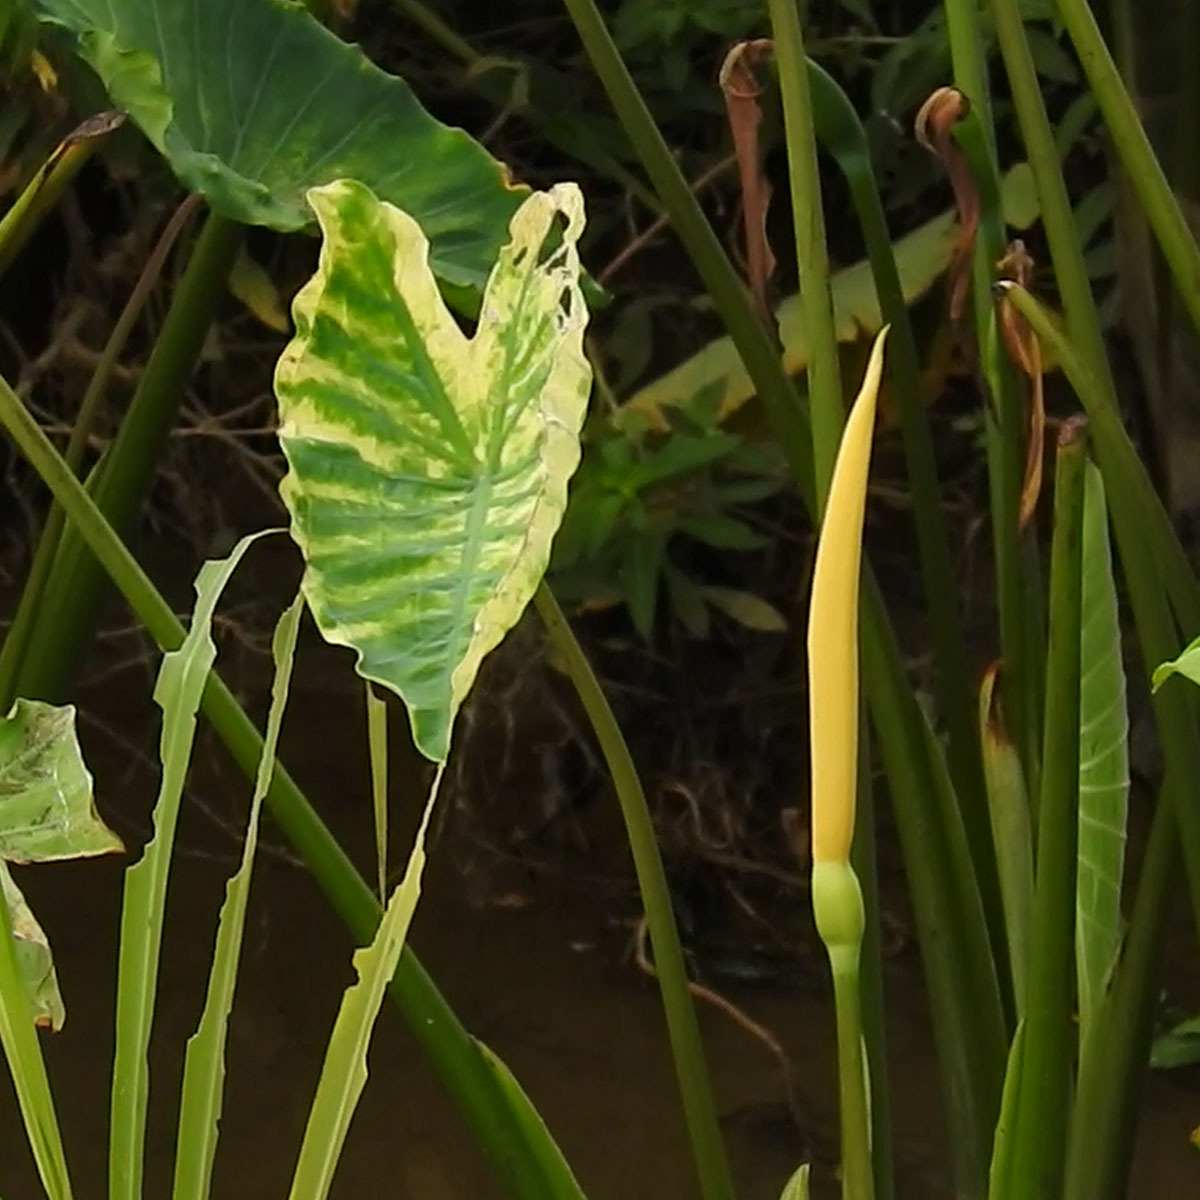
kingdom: Plantae
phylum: Tracheophyta
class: Liliopsida
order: Alismatales
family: Araceae
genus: Colocasia
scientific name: Colocasia esculenta
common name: Taro
